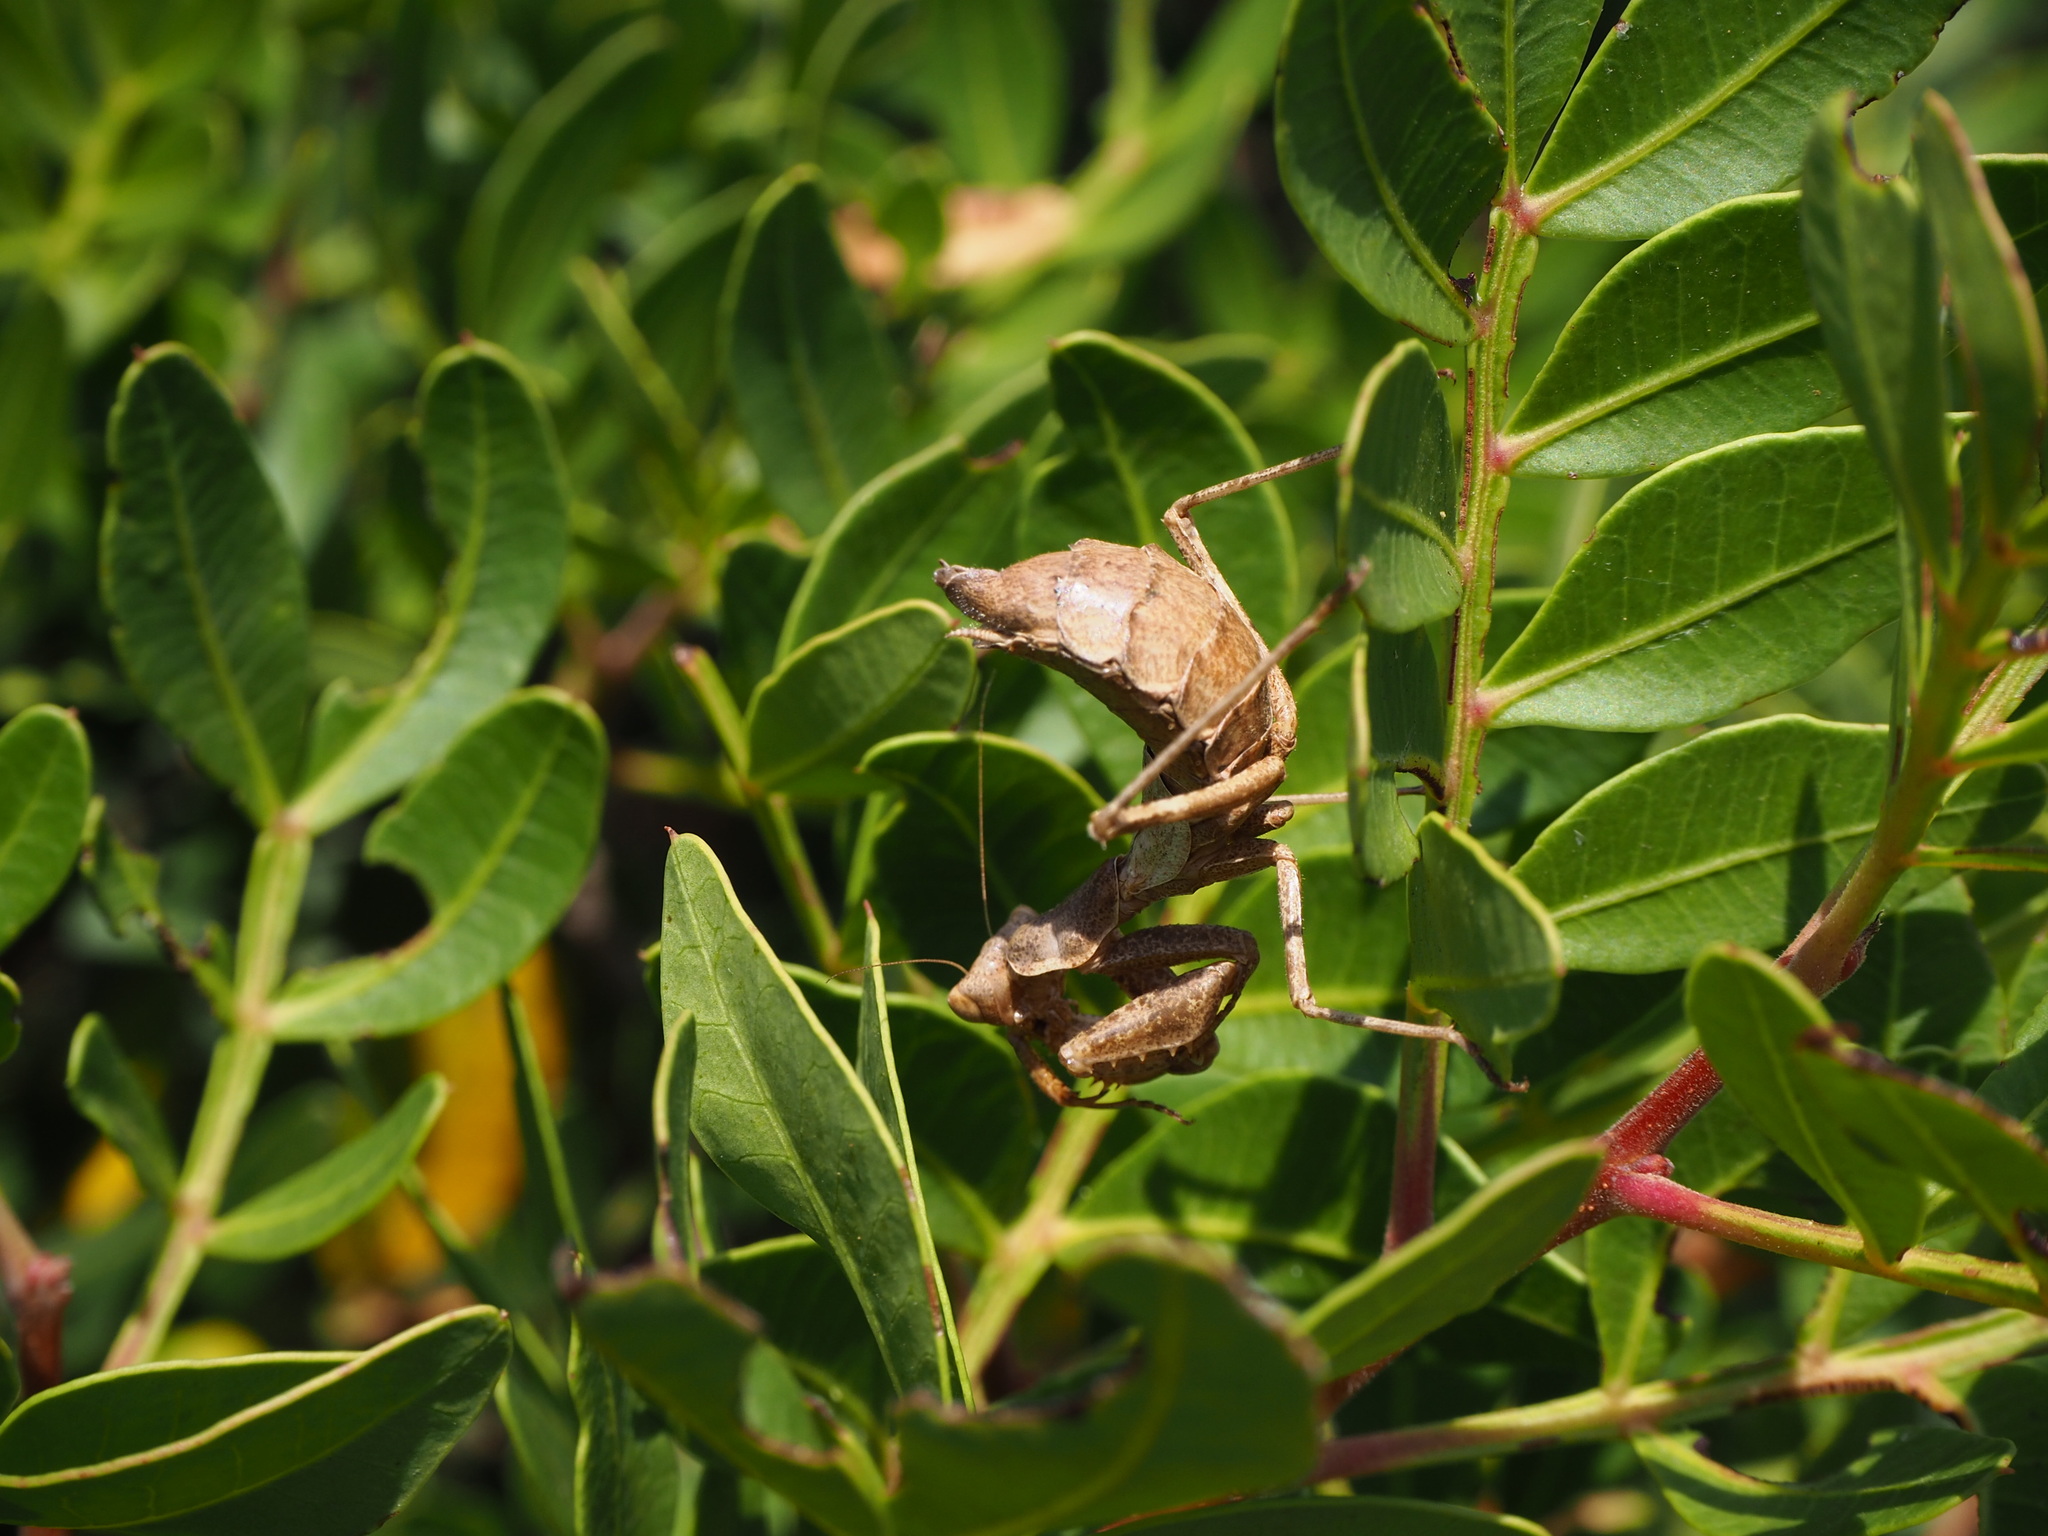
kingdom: Animalia
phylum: Arthropoda
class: Insecta
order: Mantodea
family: Amelidae
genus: Ameles
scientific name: Ameles spallanzania
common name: European dwarf mantis
